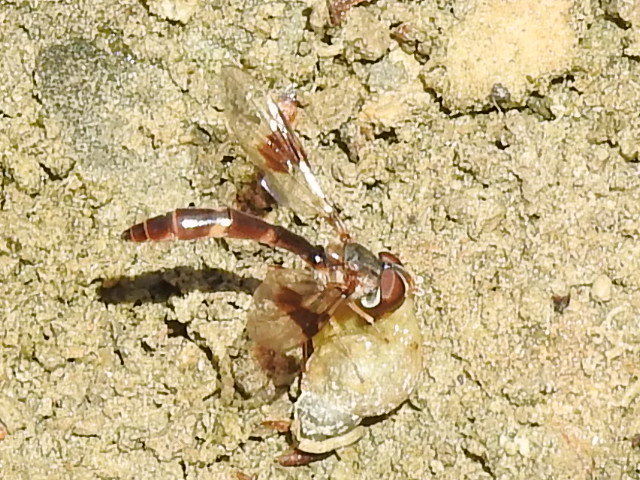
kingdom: Animalia
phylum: Arthropoda
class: Insecta
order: Diptera
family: Syrphidae
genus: Hypocritanus
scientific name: Hypocritanus fascipennis
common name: Eastern band-winged hover fly
